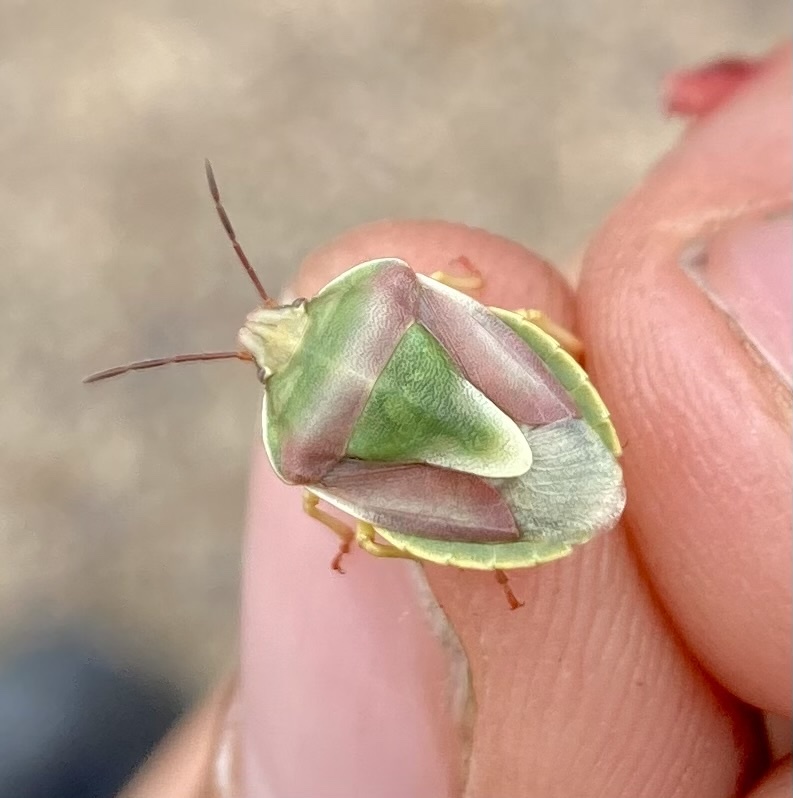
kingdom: Animalia
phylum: Arthropoda
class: Insecta
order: Hemiptera
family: Pentatomidae
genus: Antheminia
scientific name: Antheminia
